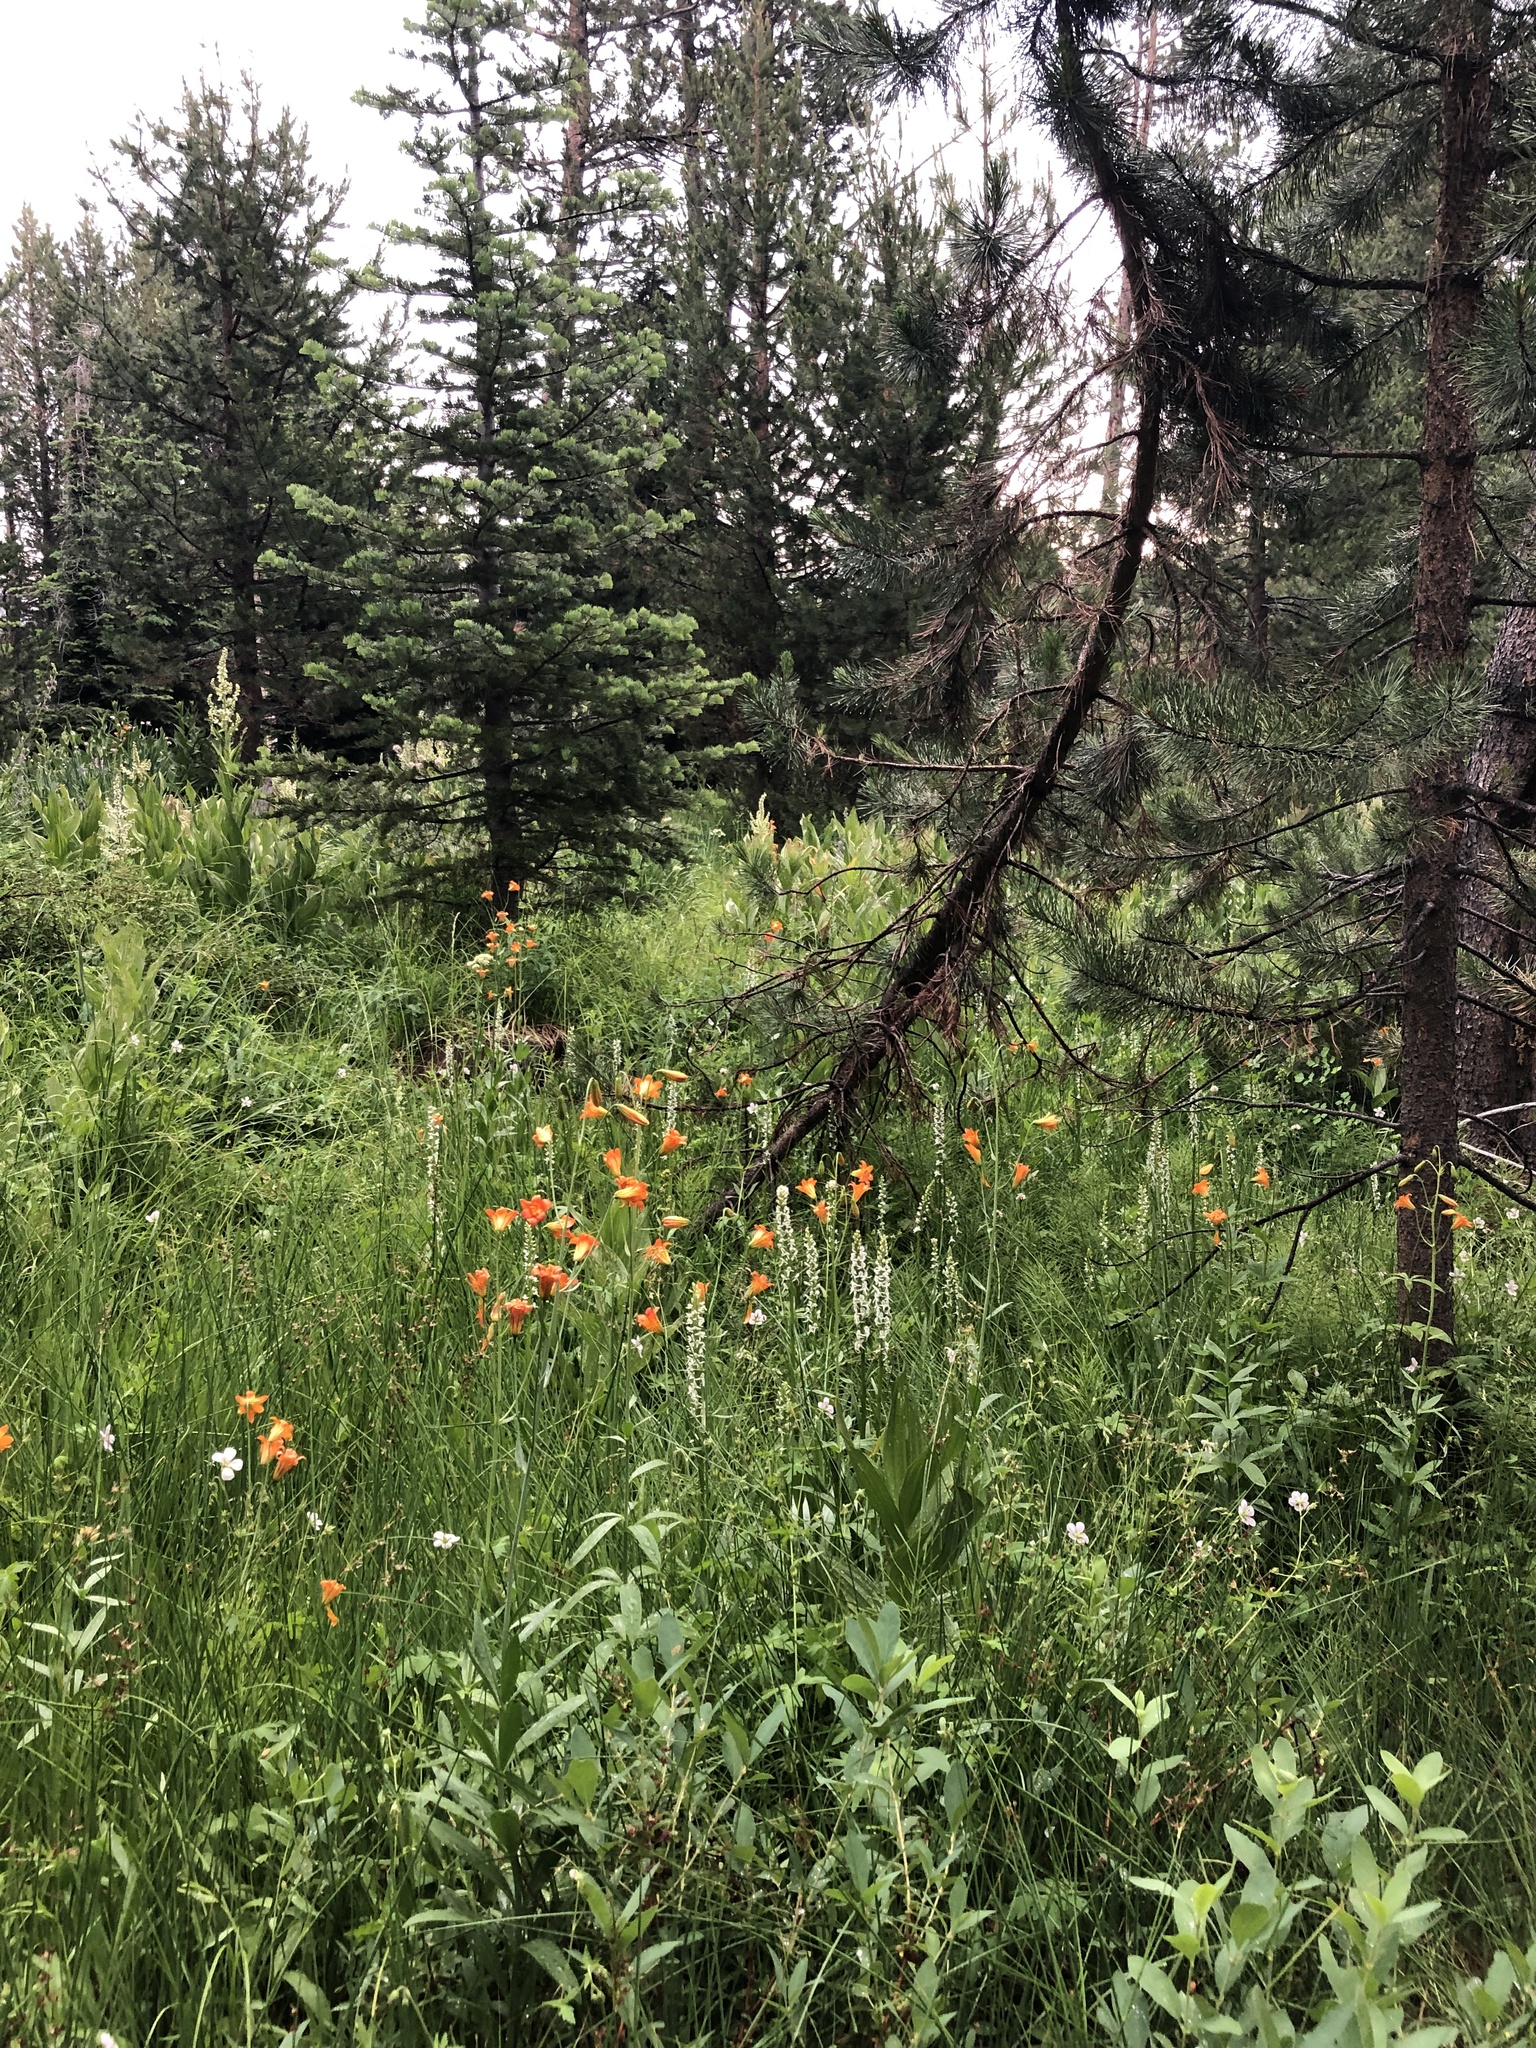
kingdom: Plantae
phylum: Tracheophyta
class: Liliopsida
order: Liliales
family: Liliaceae
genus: Lilium
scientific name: Lilium parvum
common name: Alpine lily
